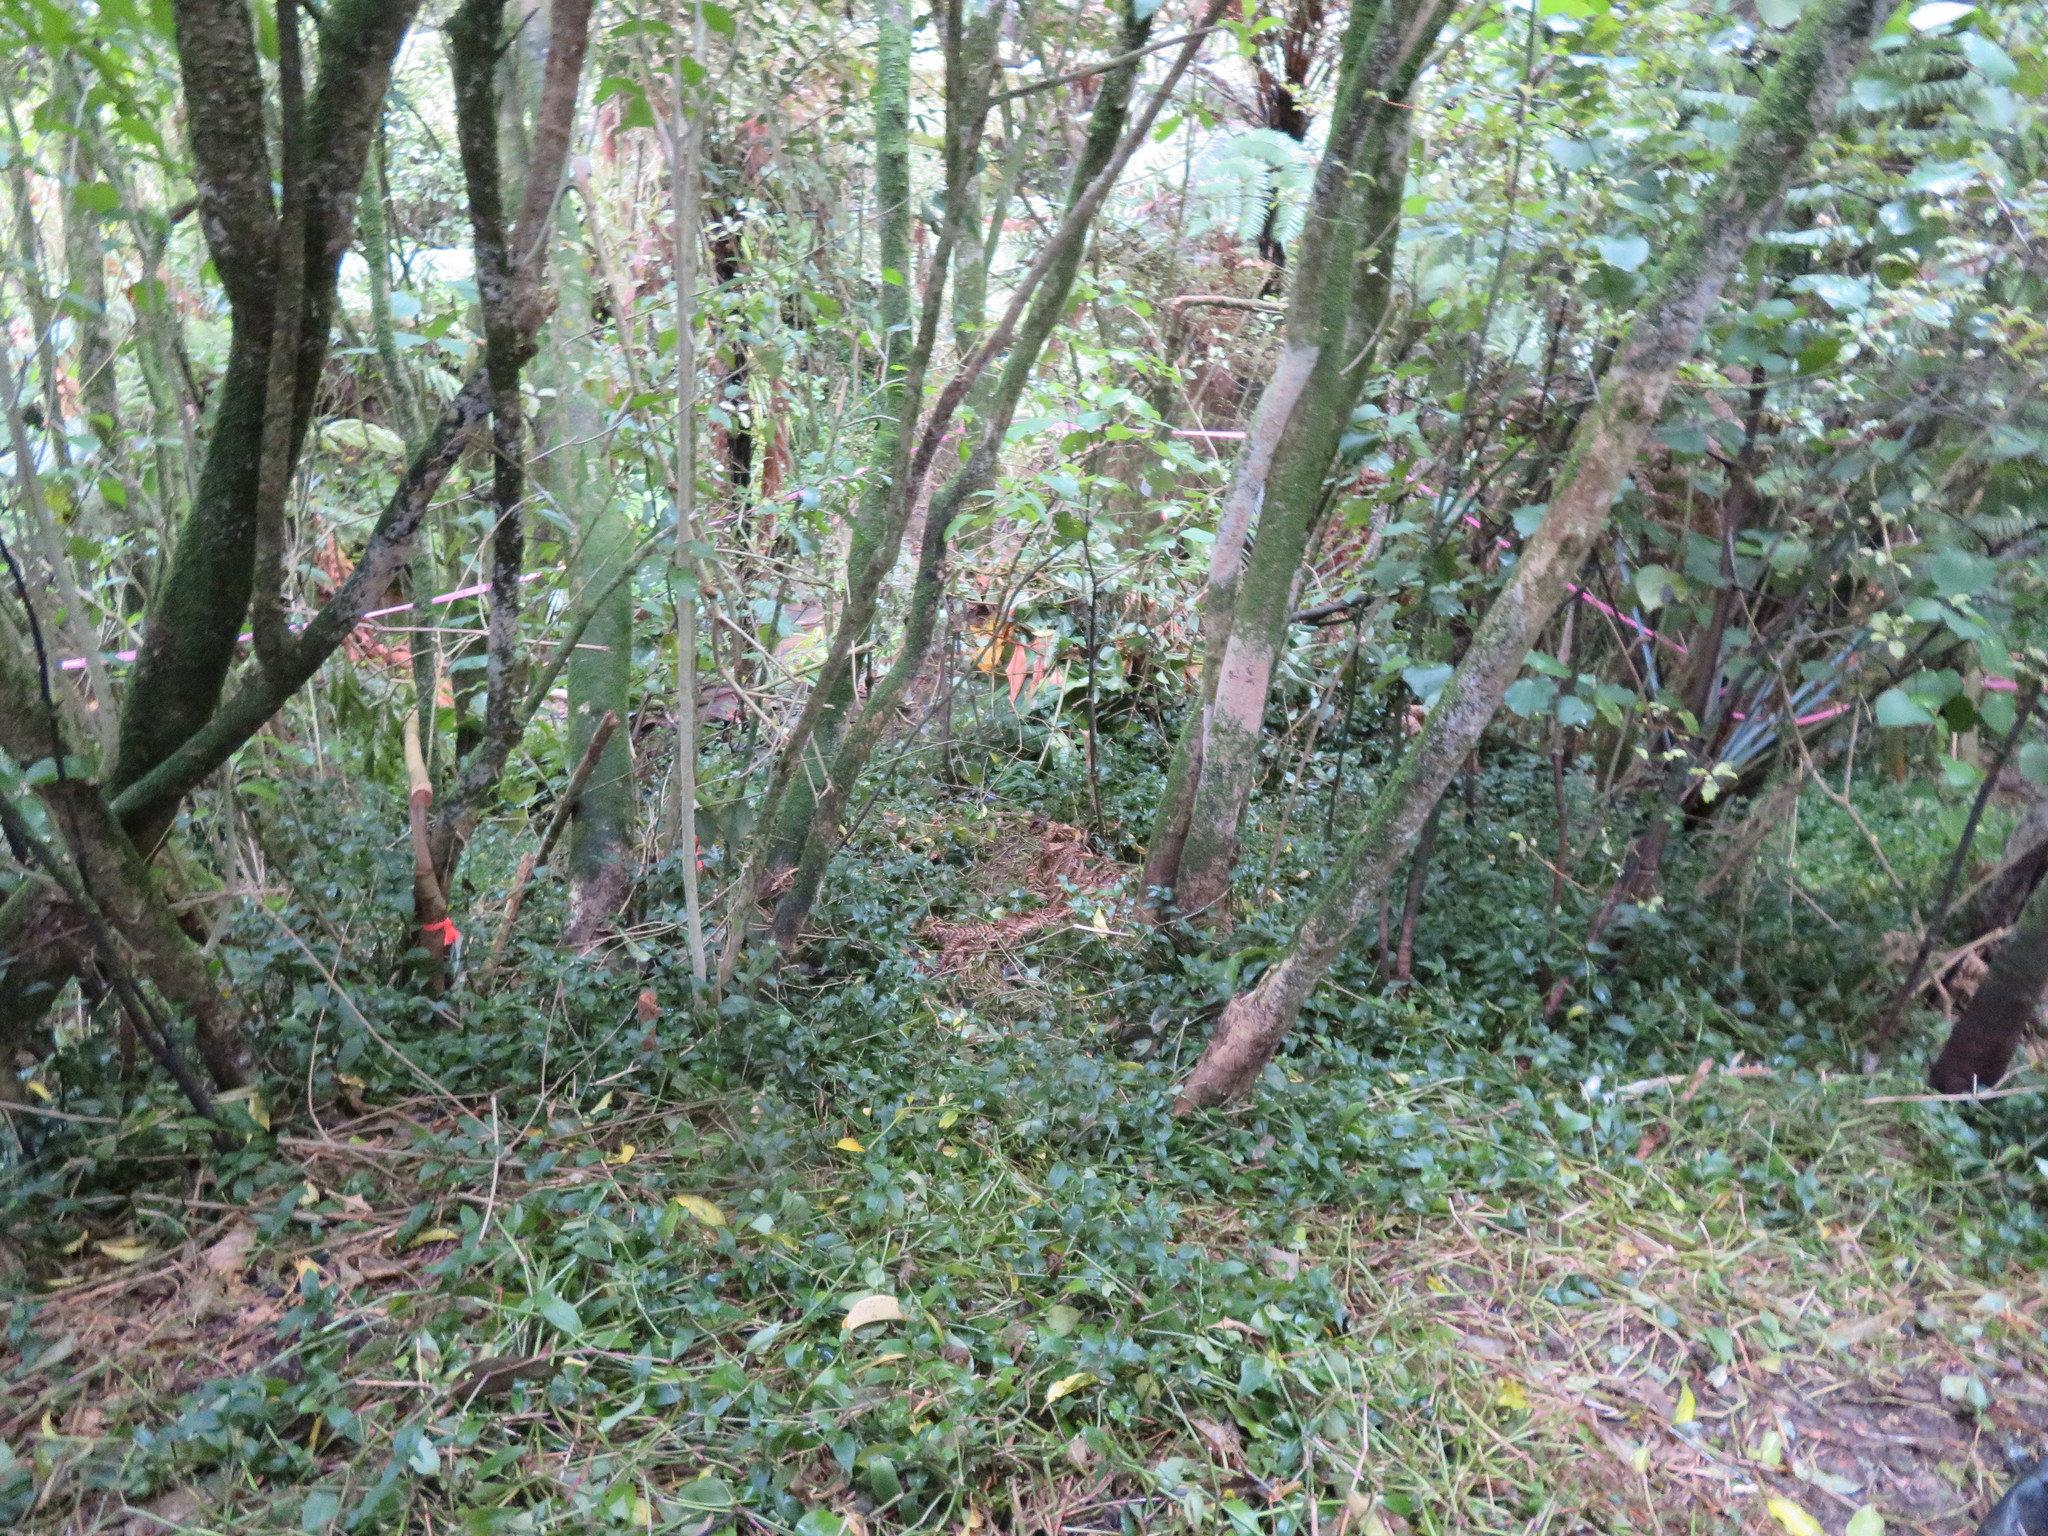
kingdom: Plantae
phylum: Tracheophyta
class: Liliopsida
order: Commelinales
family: Commelinaceae
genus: Tradescantia
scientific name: Tradescantia fluminensis
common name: Wandering-jew
